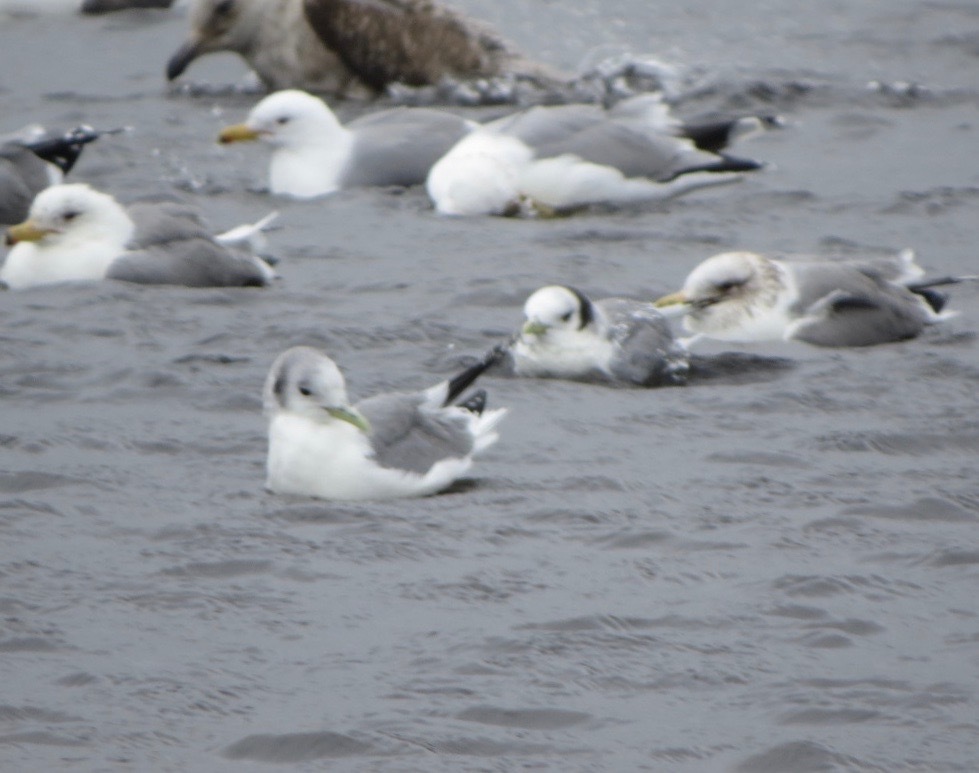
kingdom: Animalia
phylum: Chordata
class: Aves
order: Charadriiformes
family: Laridae
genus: Rissa
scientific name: Rissa tridactyla
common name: Black-legged kittiwake
